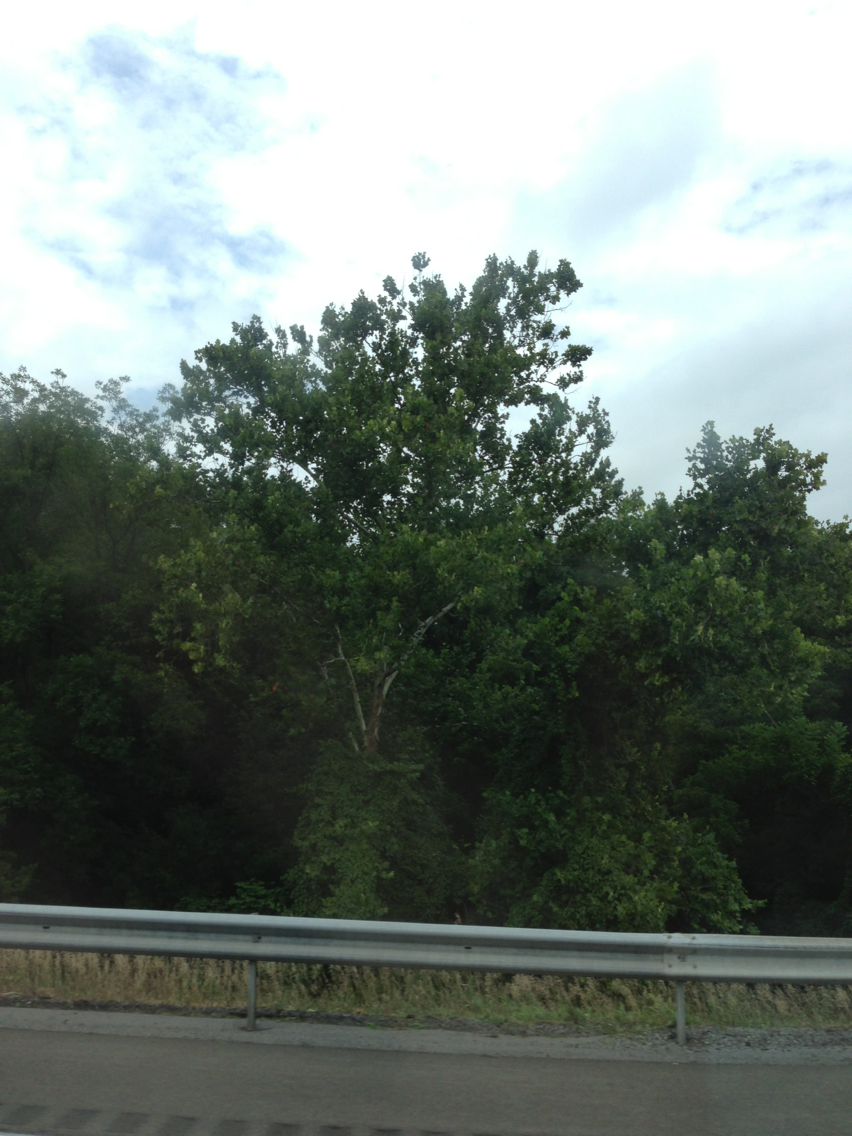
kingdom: Plantae
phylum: Tracheophyta
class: Magnoliopsida
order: Proteales
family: Platanaceae
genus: Platanus
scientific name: Platanus occidentalis
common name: American sycamore
